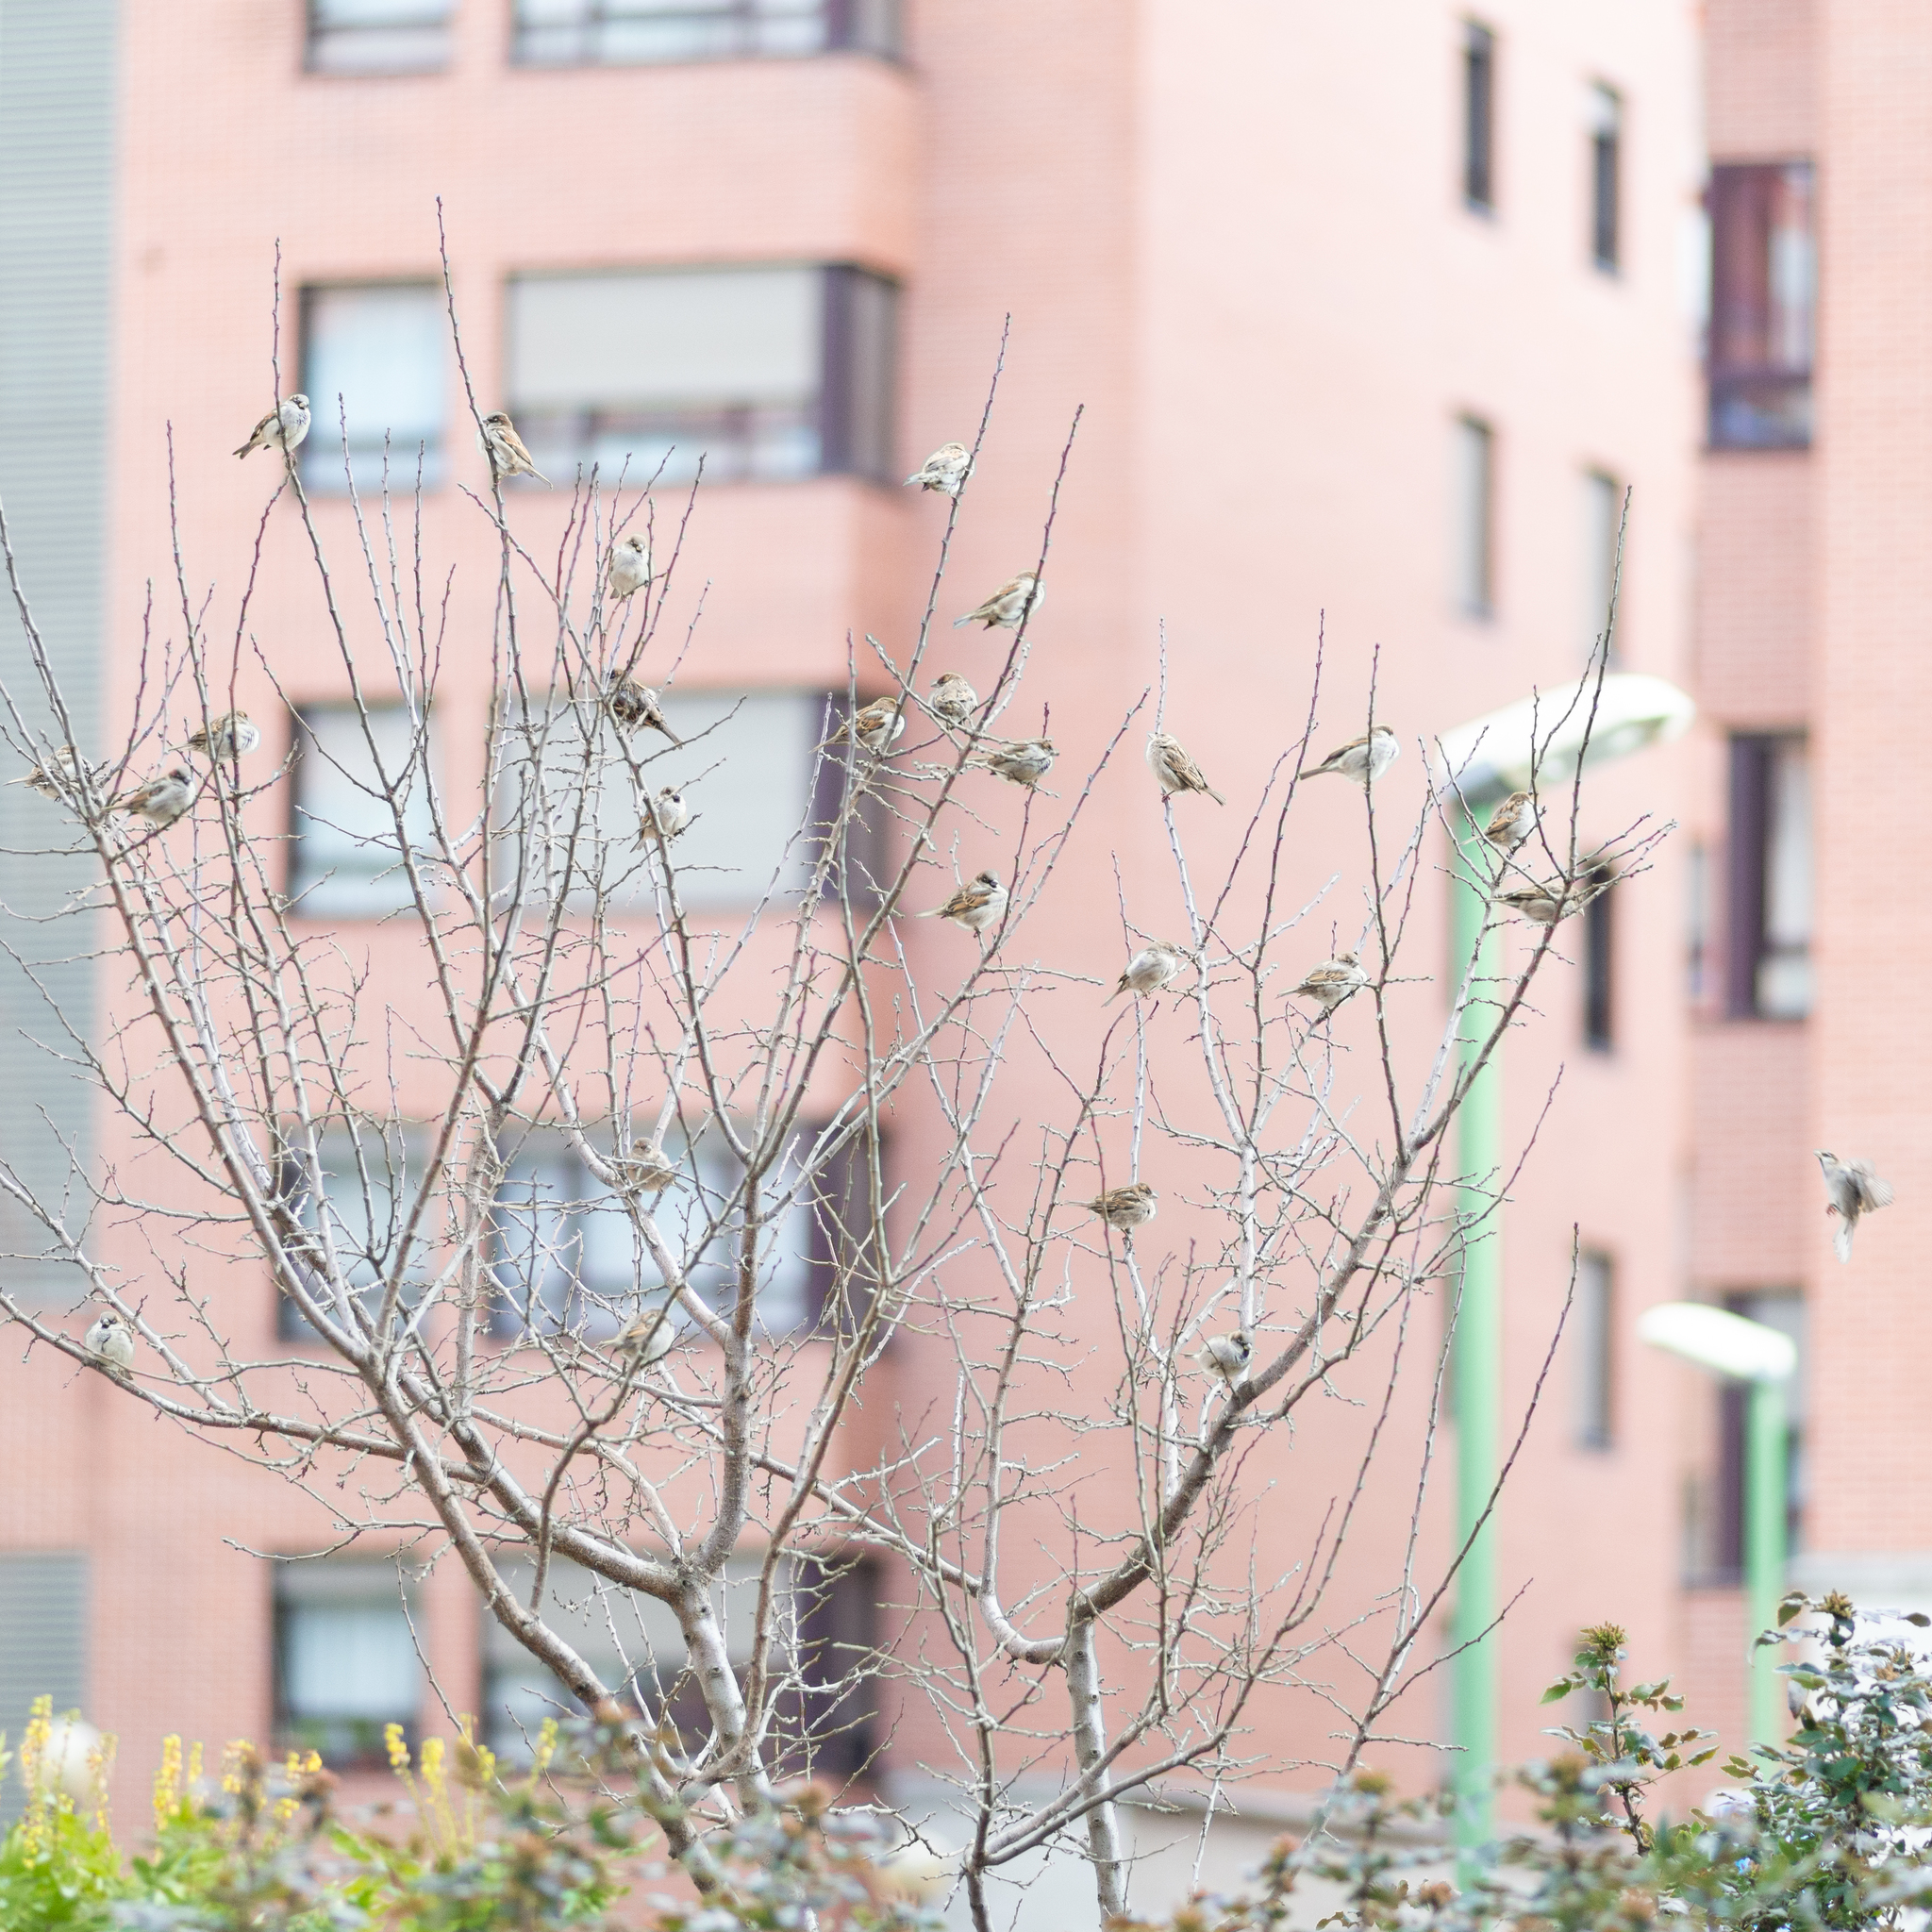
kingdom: Animalia
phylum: Chordata
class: Aves
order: Passeriformes
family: Passeridae
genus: Passer
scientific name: Passer domesticus
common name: House sparrow
